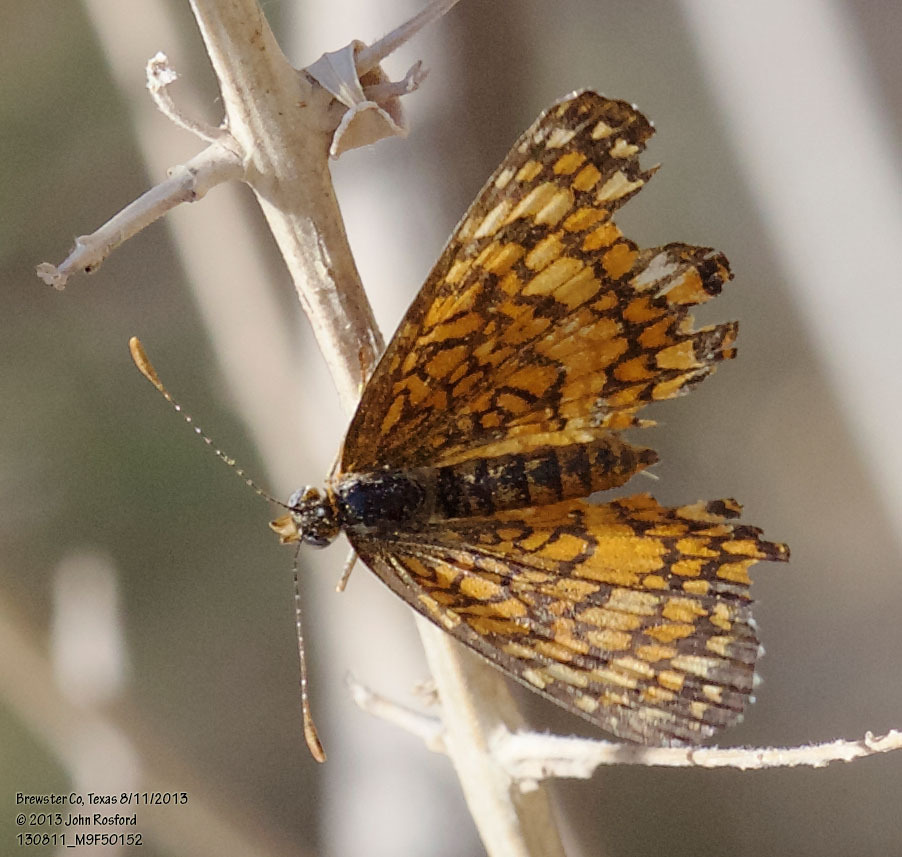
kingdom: Animalia
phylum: Arthropoda
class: Insecta
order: Lepidoptera
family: Nymphalidae
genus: Texola
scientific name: Texola elada
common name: Elada checkerspot
